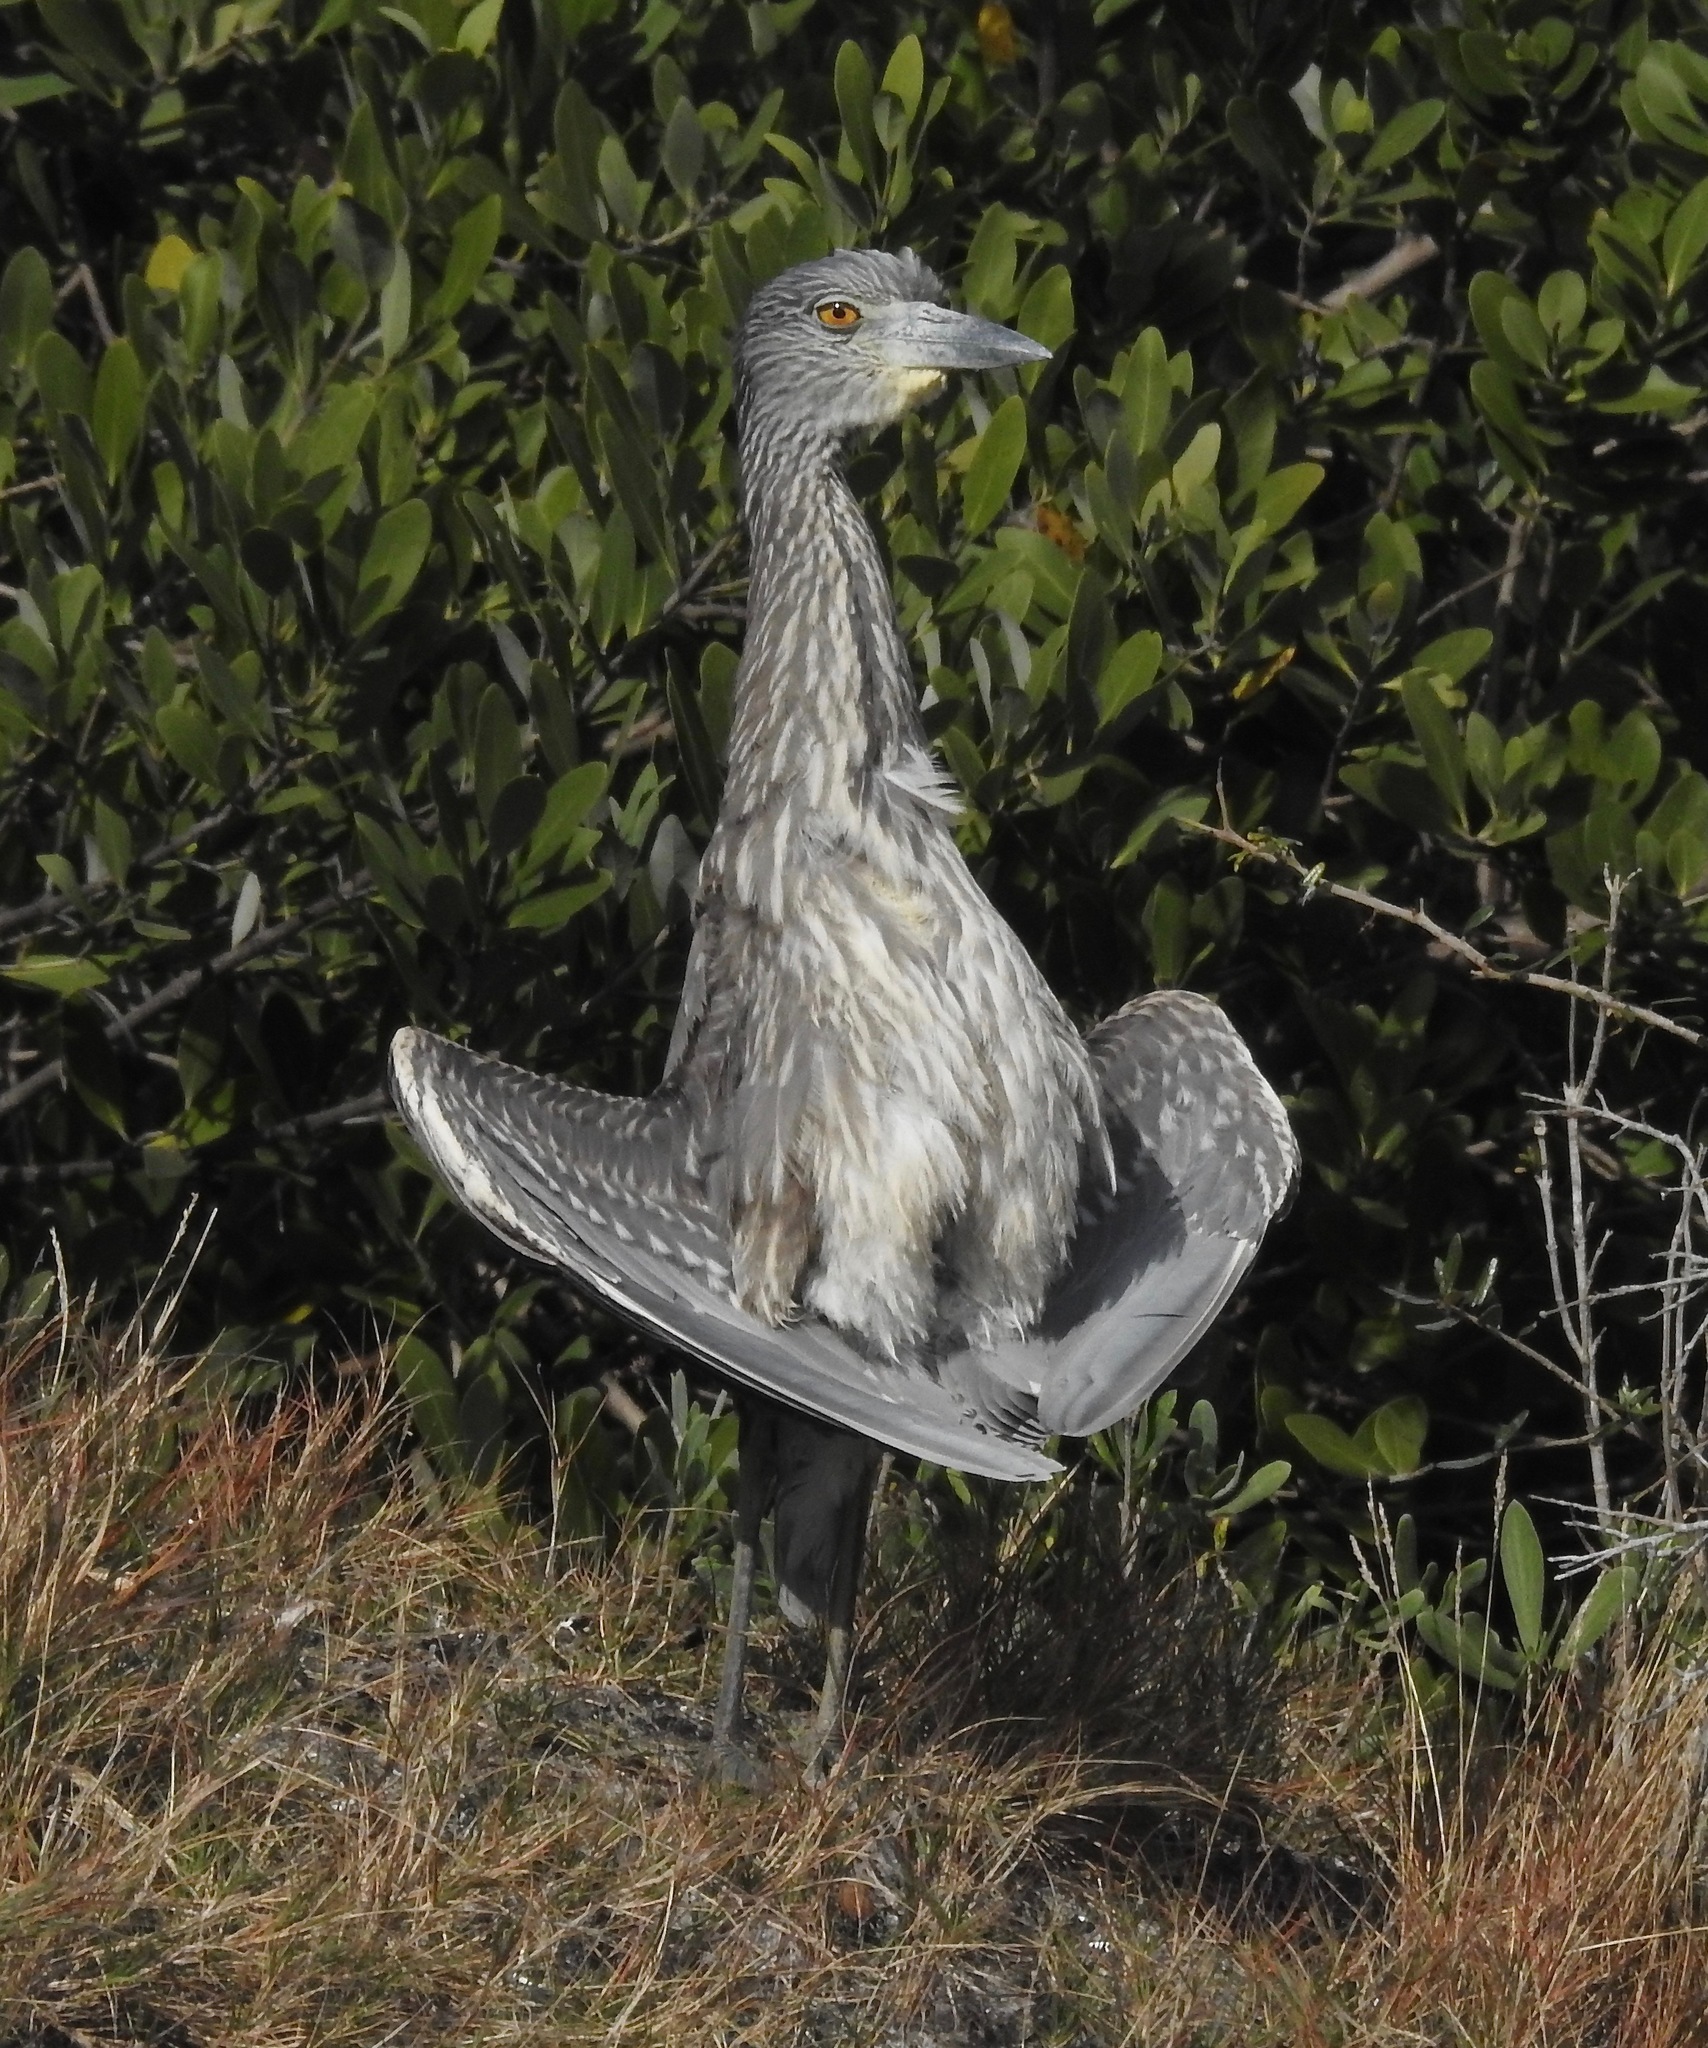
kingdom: Animalia
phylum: Chordata
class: Aves
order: Pelecaniformes
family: Ardeidae
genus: Nyctanassa
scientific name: Nyctanassa violacea
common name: Yellow-crowned night heron
